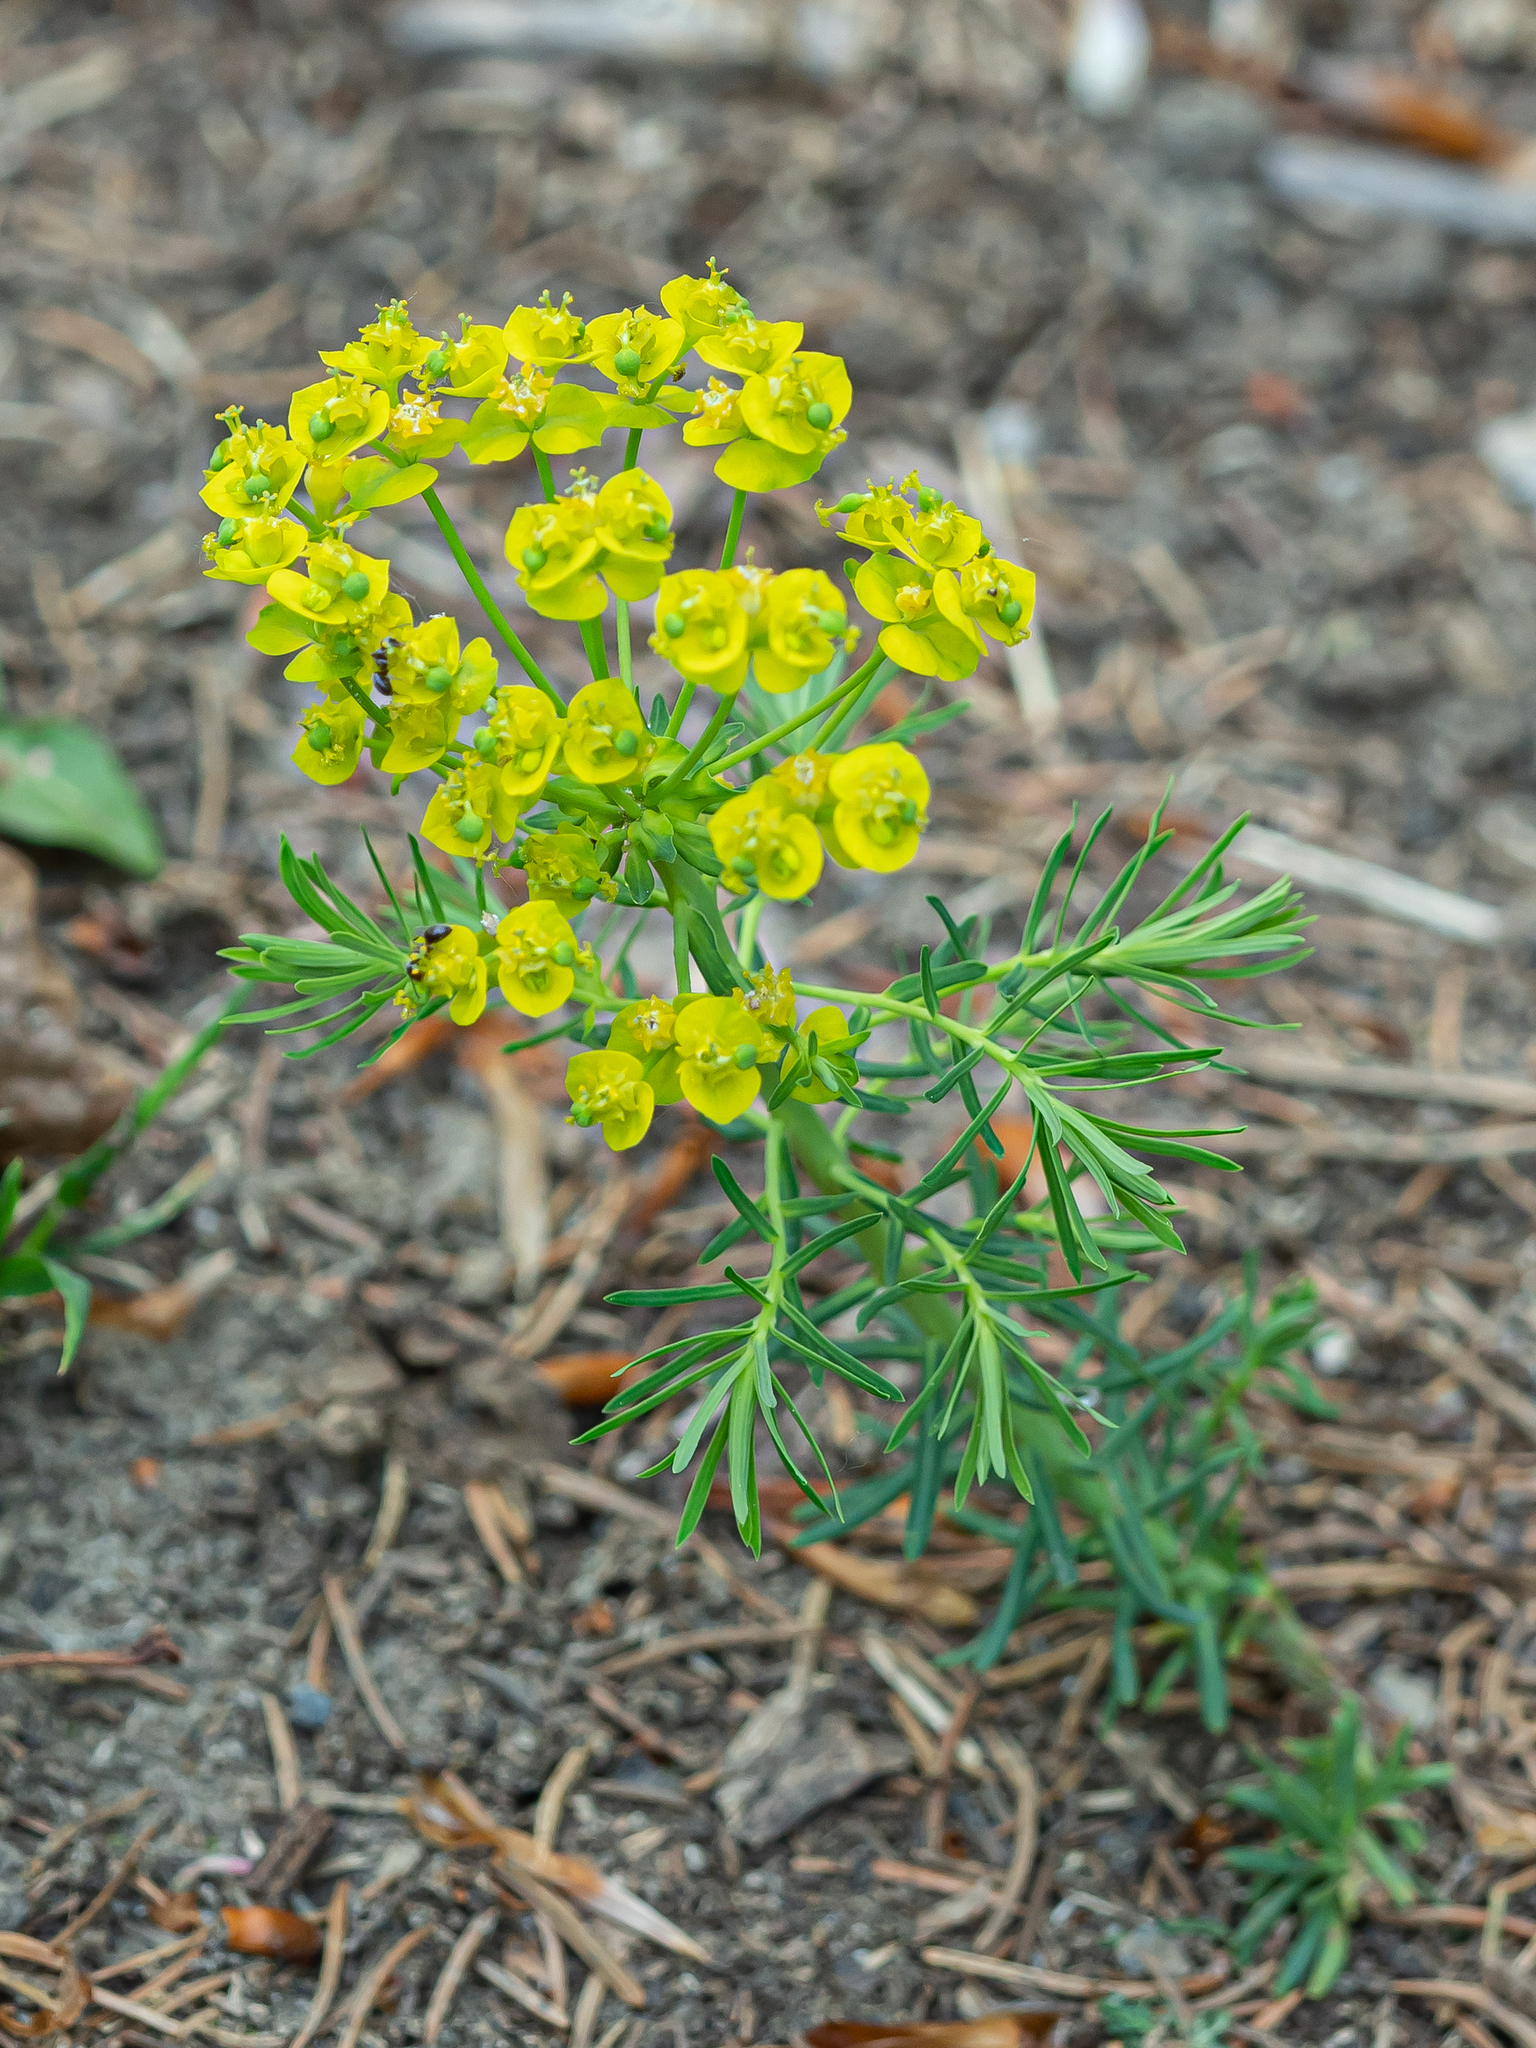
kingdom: Plantae
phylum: Tracheophyta
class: Magnoliopsida
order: Malpighiales
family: Euphorbiaceae
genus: Euphorbia
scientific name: Euphorbia cyparissias
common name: Cypress spurge
